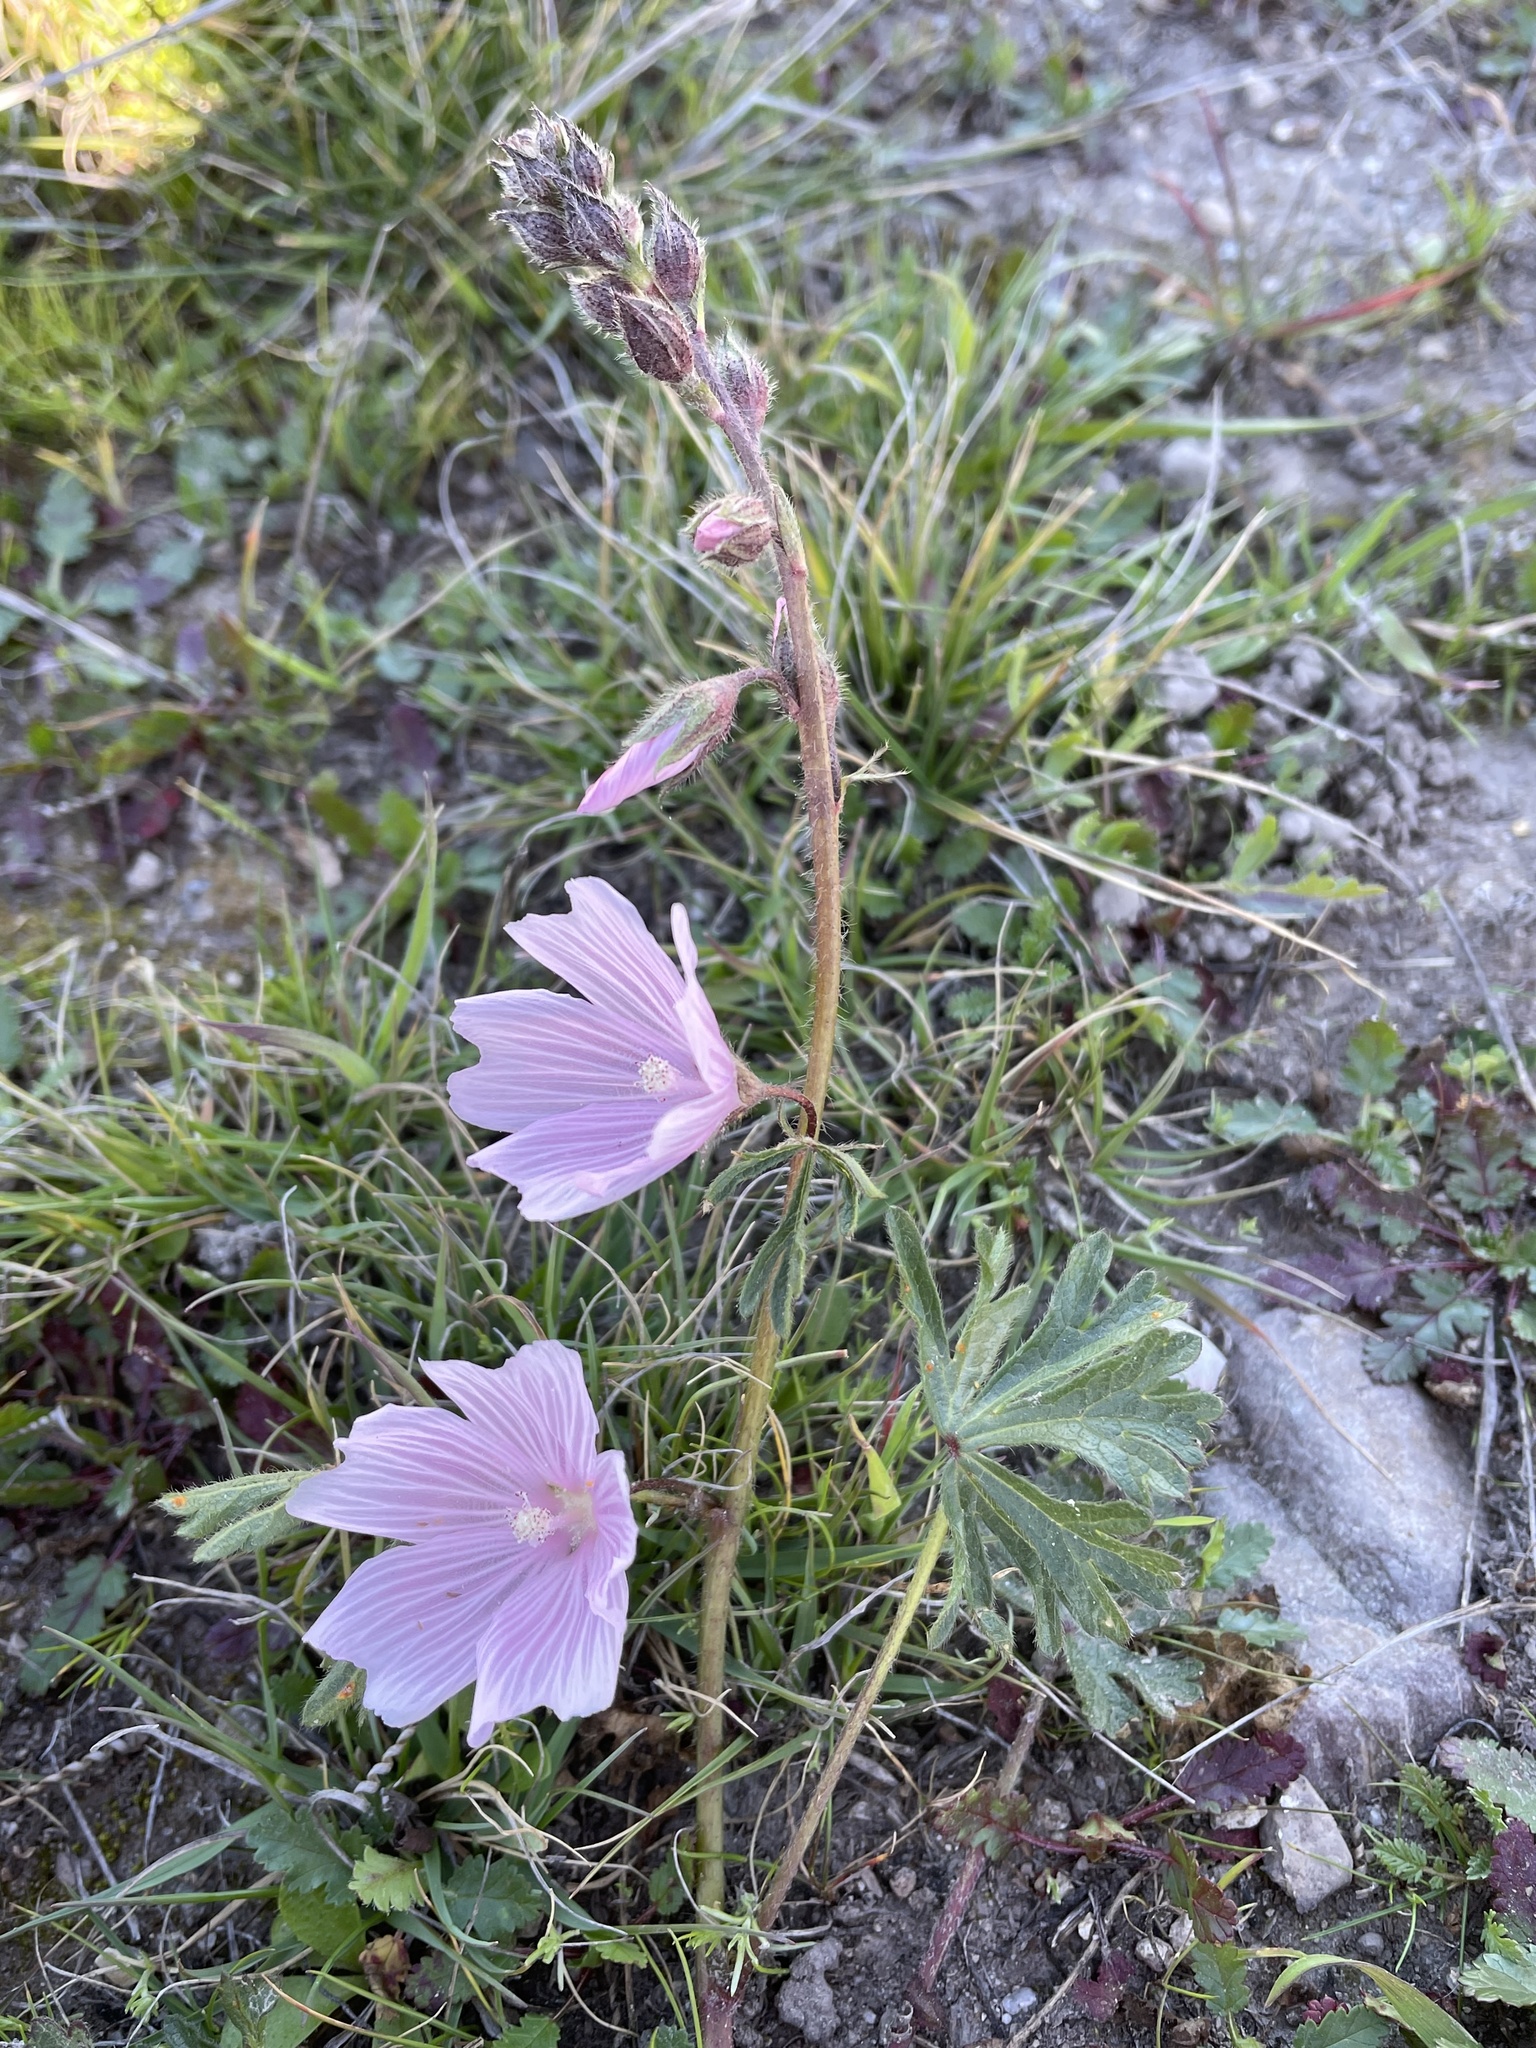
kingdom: Plantae
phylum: Tracheophyta
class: Magnoliopsida
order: Malvales
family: Malvaceae
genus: Sidalcea
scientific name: Sidalcea malviflora
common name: Greek mallow
